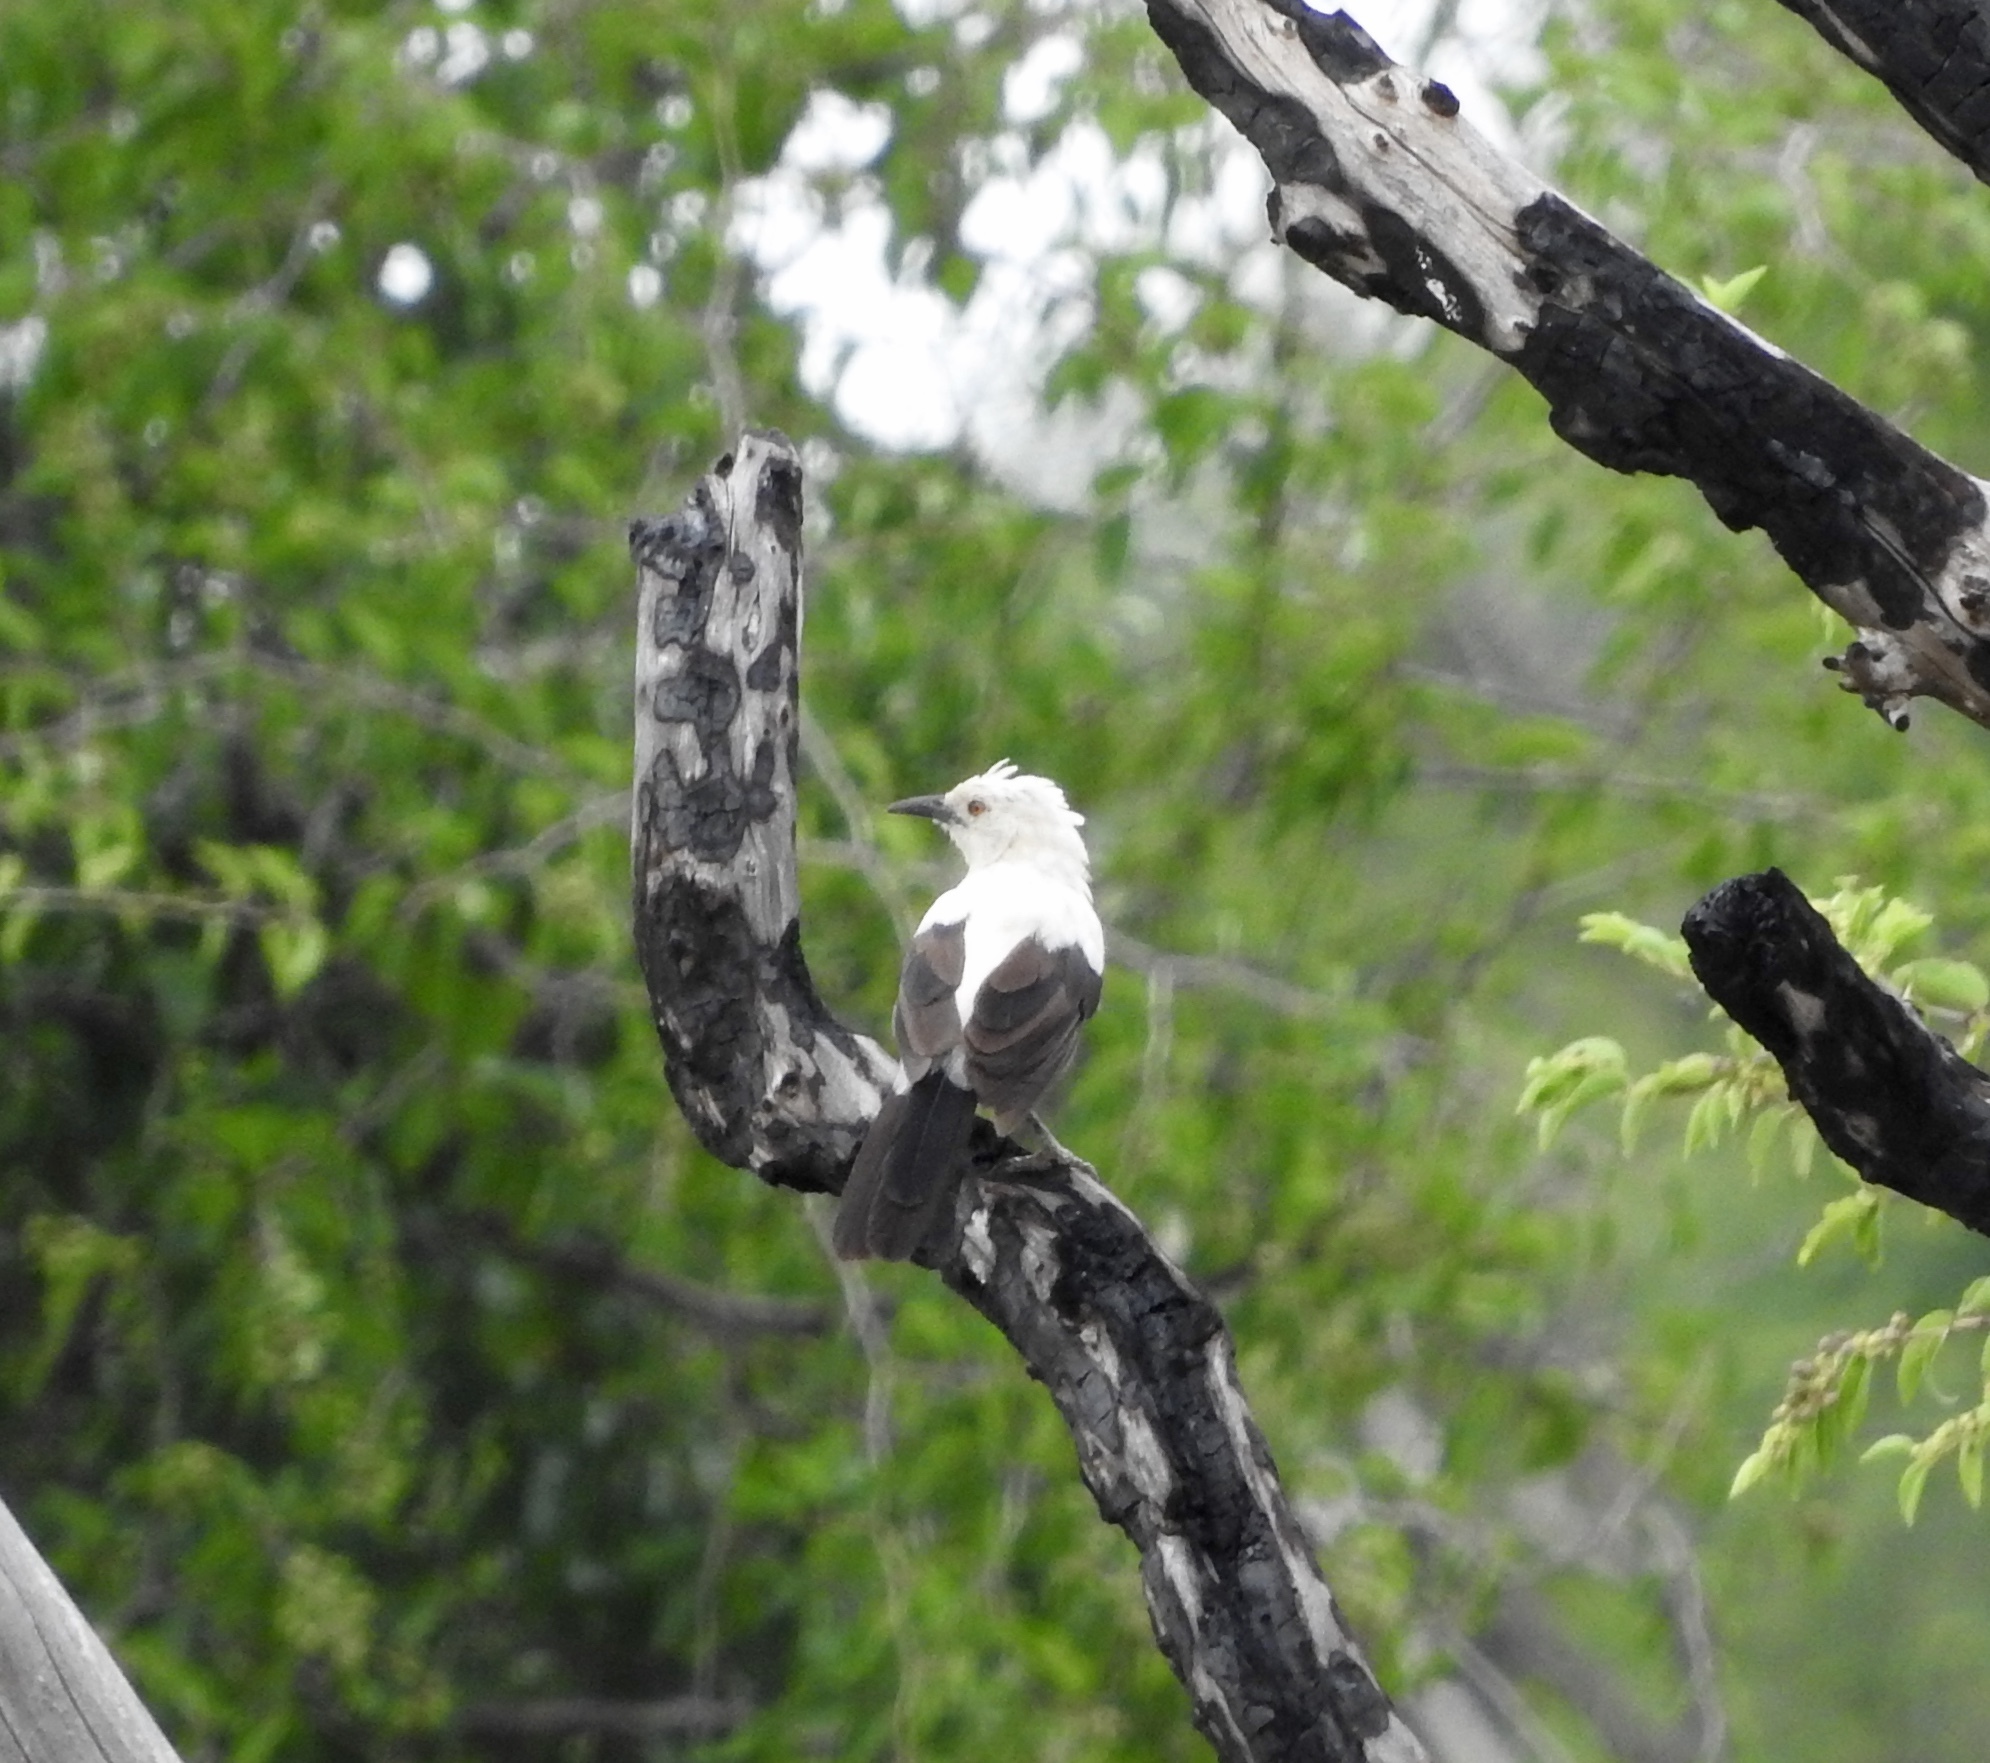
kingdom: Animalia
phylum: Chordata
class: Aves
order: Passeriformes
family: Leiothrichidae
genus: Turdoides
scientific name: Turdoides bicolor
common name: Southern pied babbler
